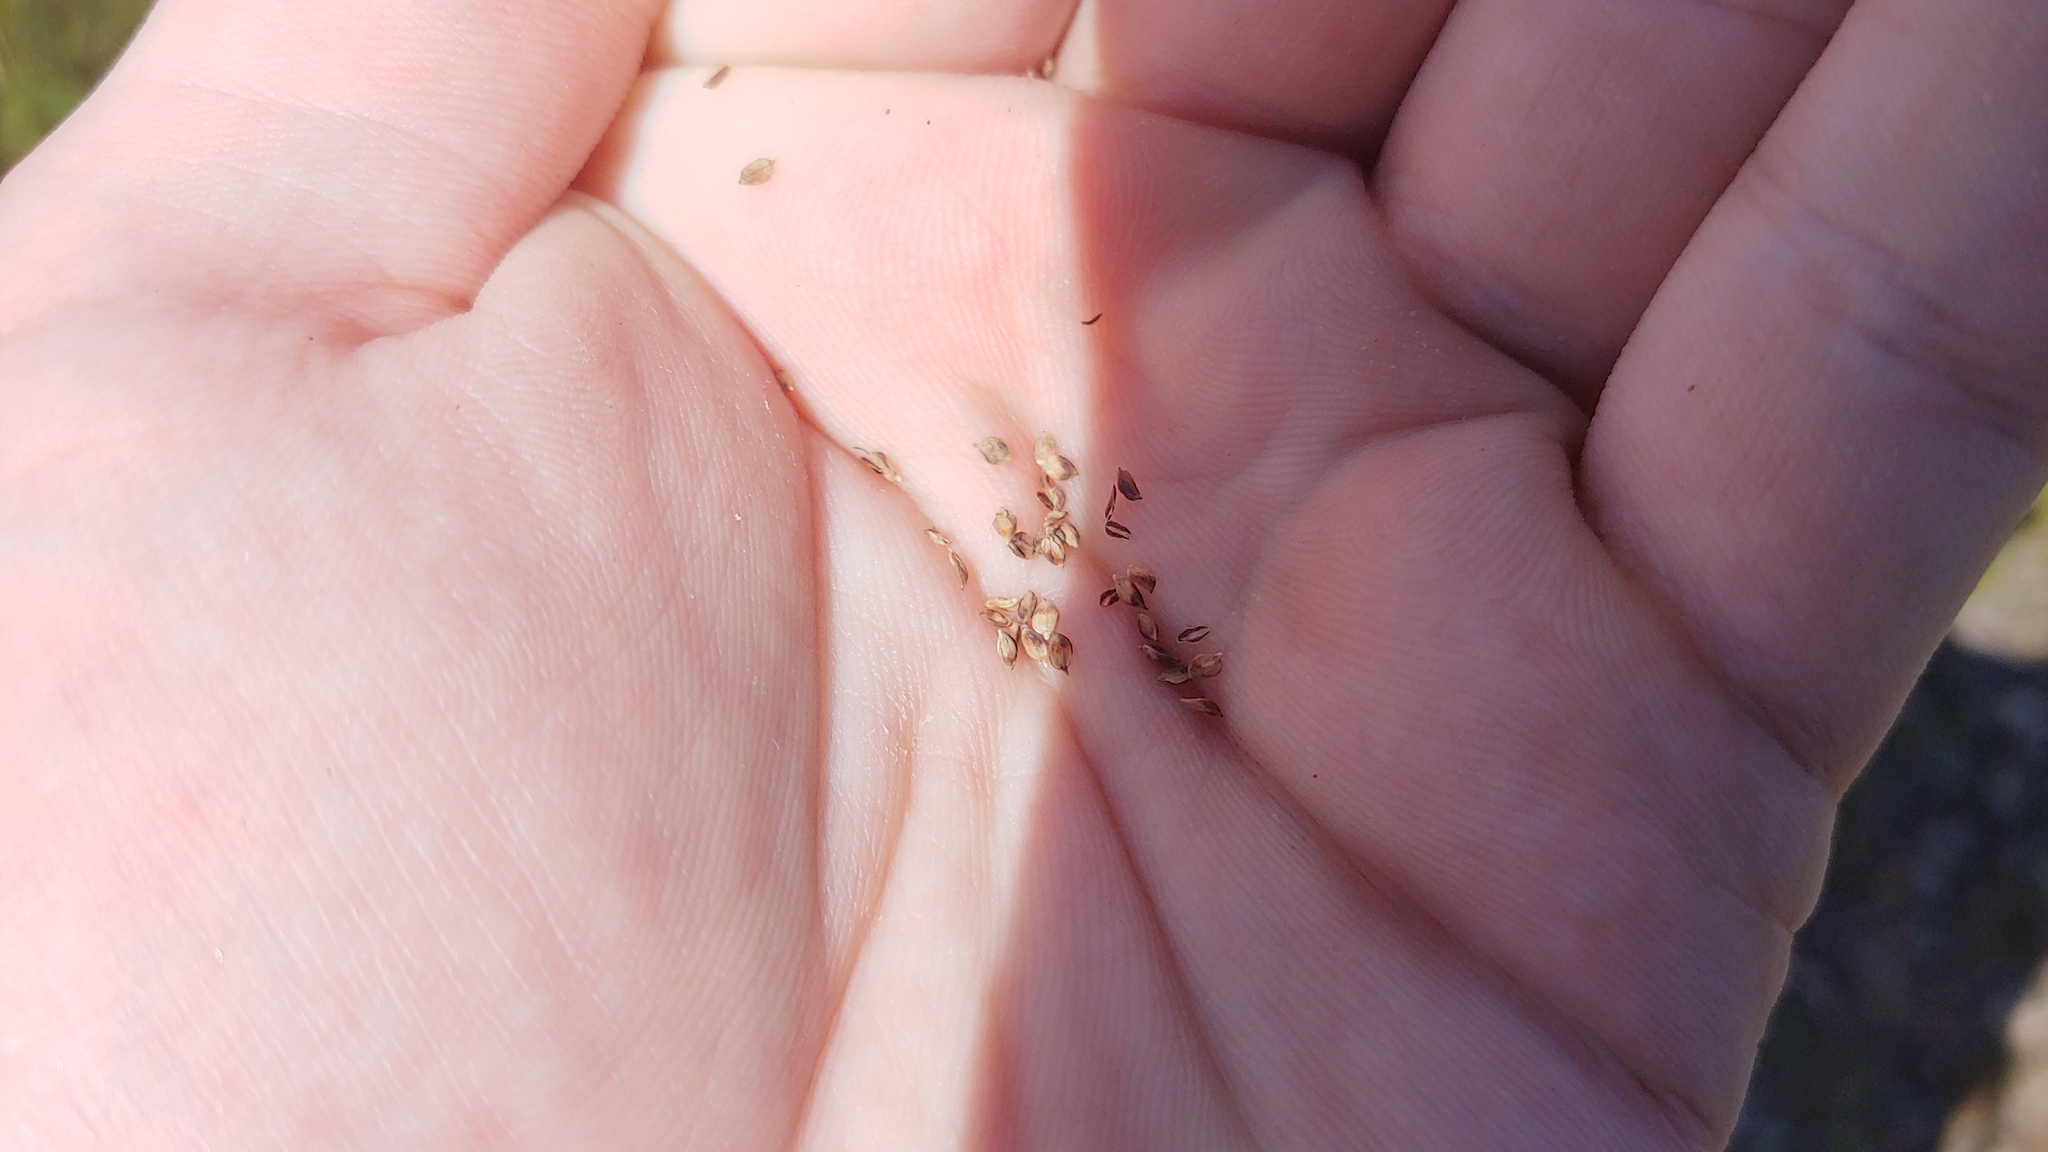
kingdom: Plantae
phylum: Tracheophyta
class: Liliopsida
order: Poales
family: Cyperaceae
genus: Carex
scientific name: Carex bigelowii
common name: Stiff sedge
